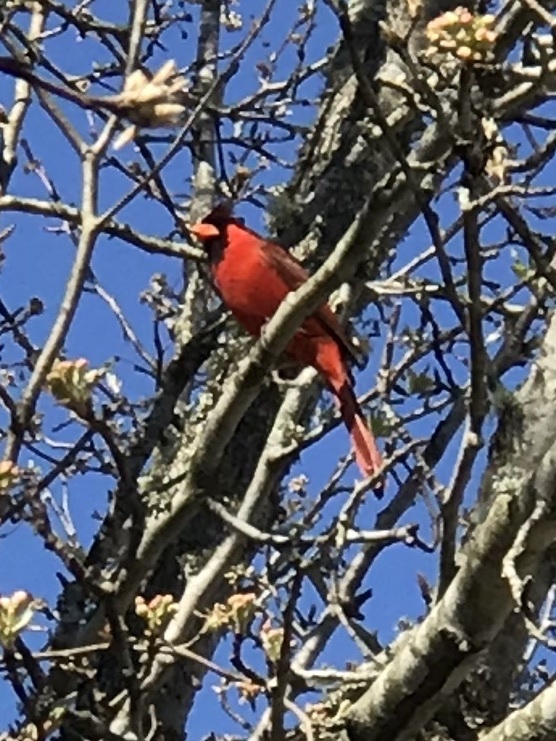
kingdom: Animalia
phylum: Chordata
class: Aves
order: Passeriformes
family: Cardinalidae
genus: Cardinalis
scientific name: Cardinalis cardinalis
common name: Northern cardinal
